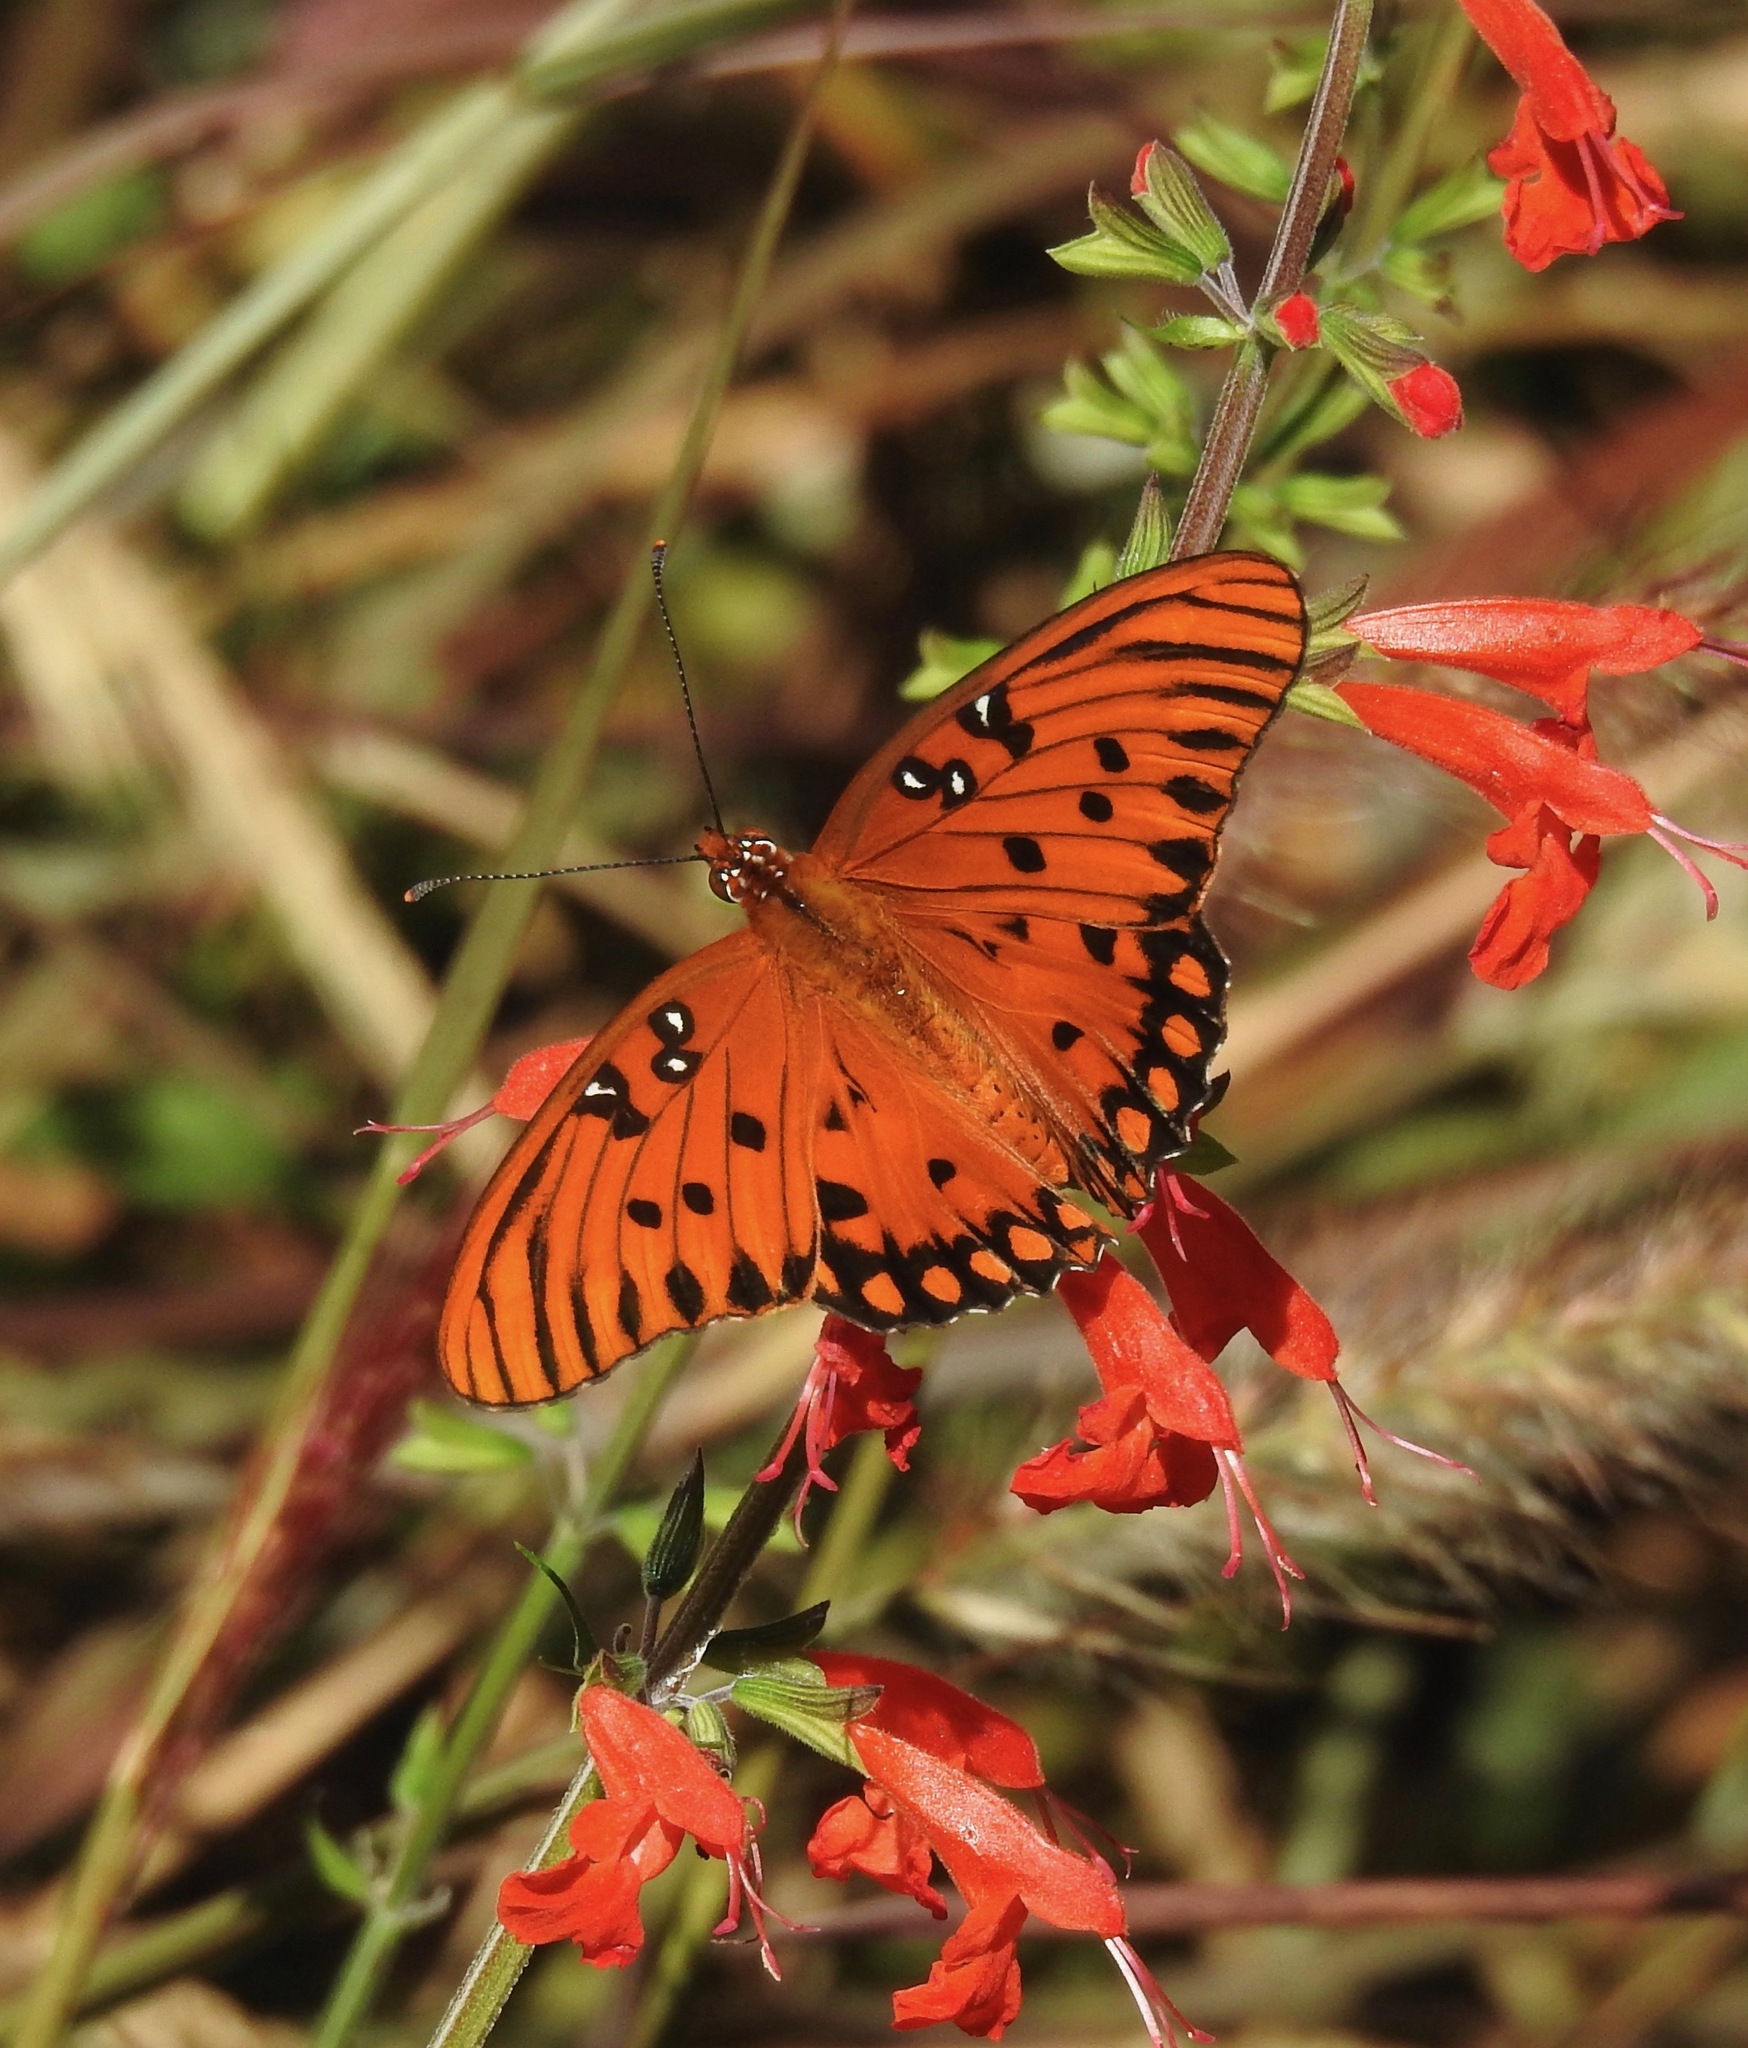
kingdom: Animalia
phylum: Arthropoda
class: Insecta
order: Lepidoptera
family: Nymphalidae
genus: Dione
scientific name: Dione vanillae
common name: Gulf fritillary
